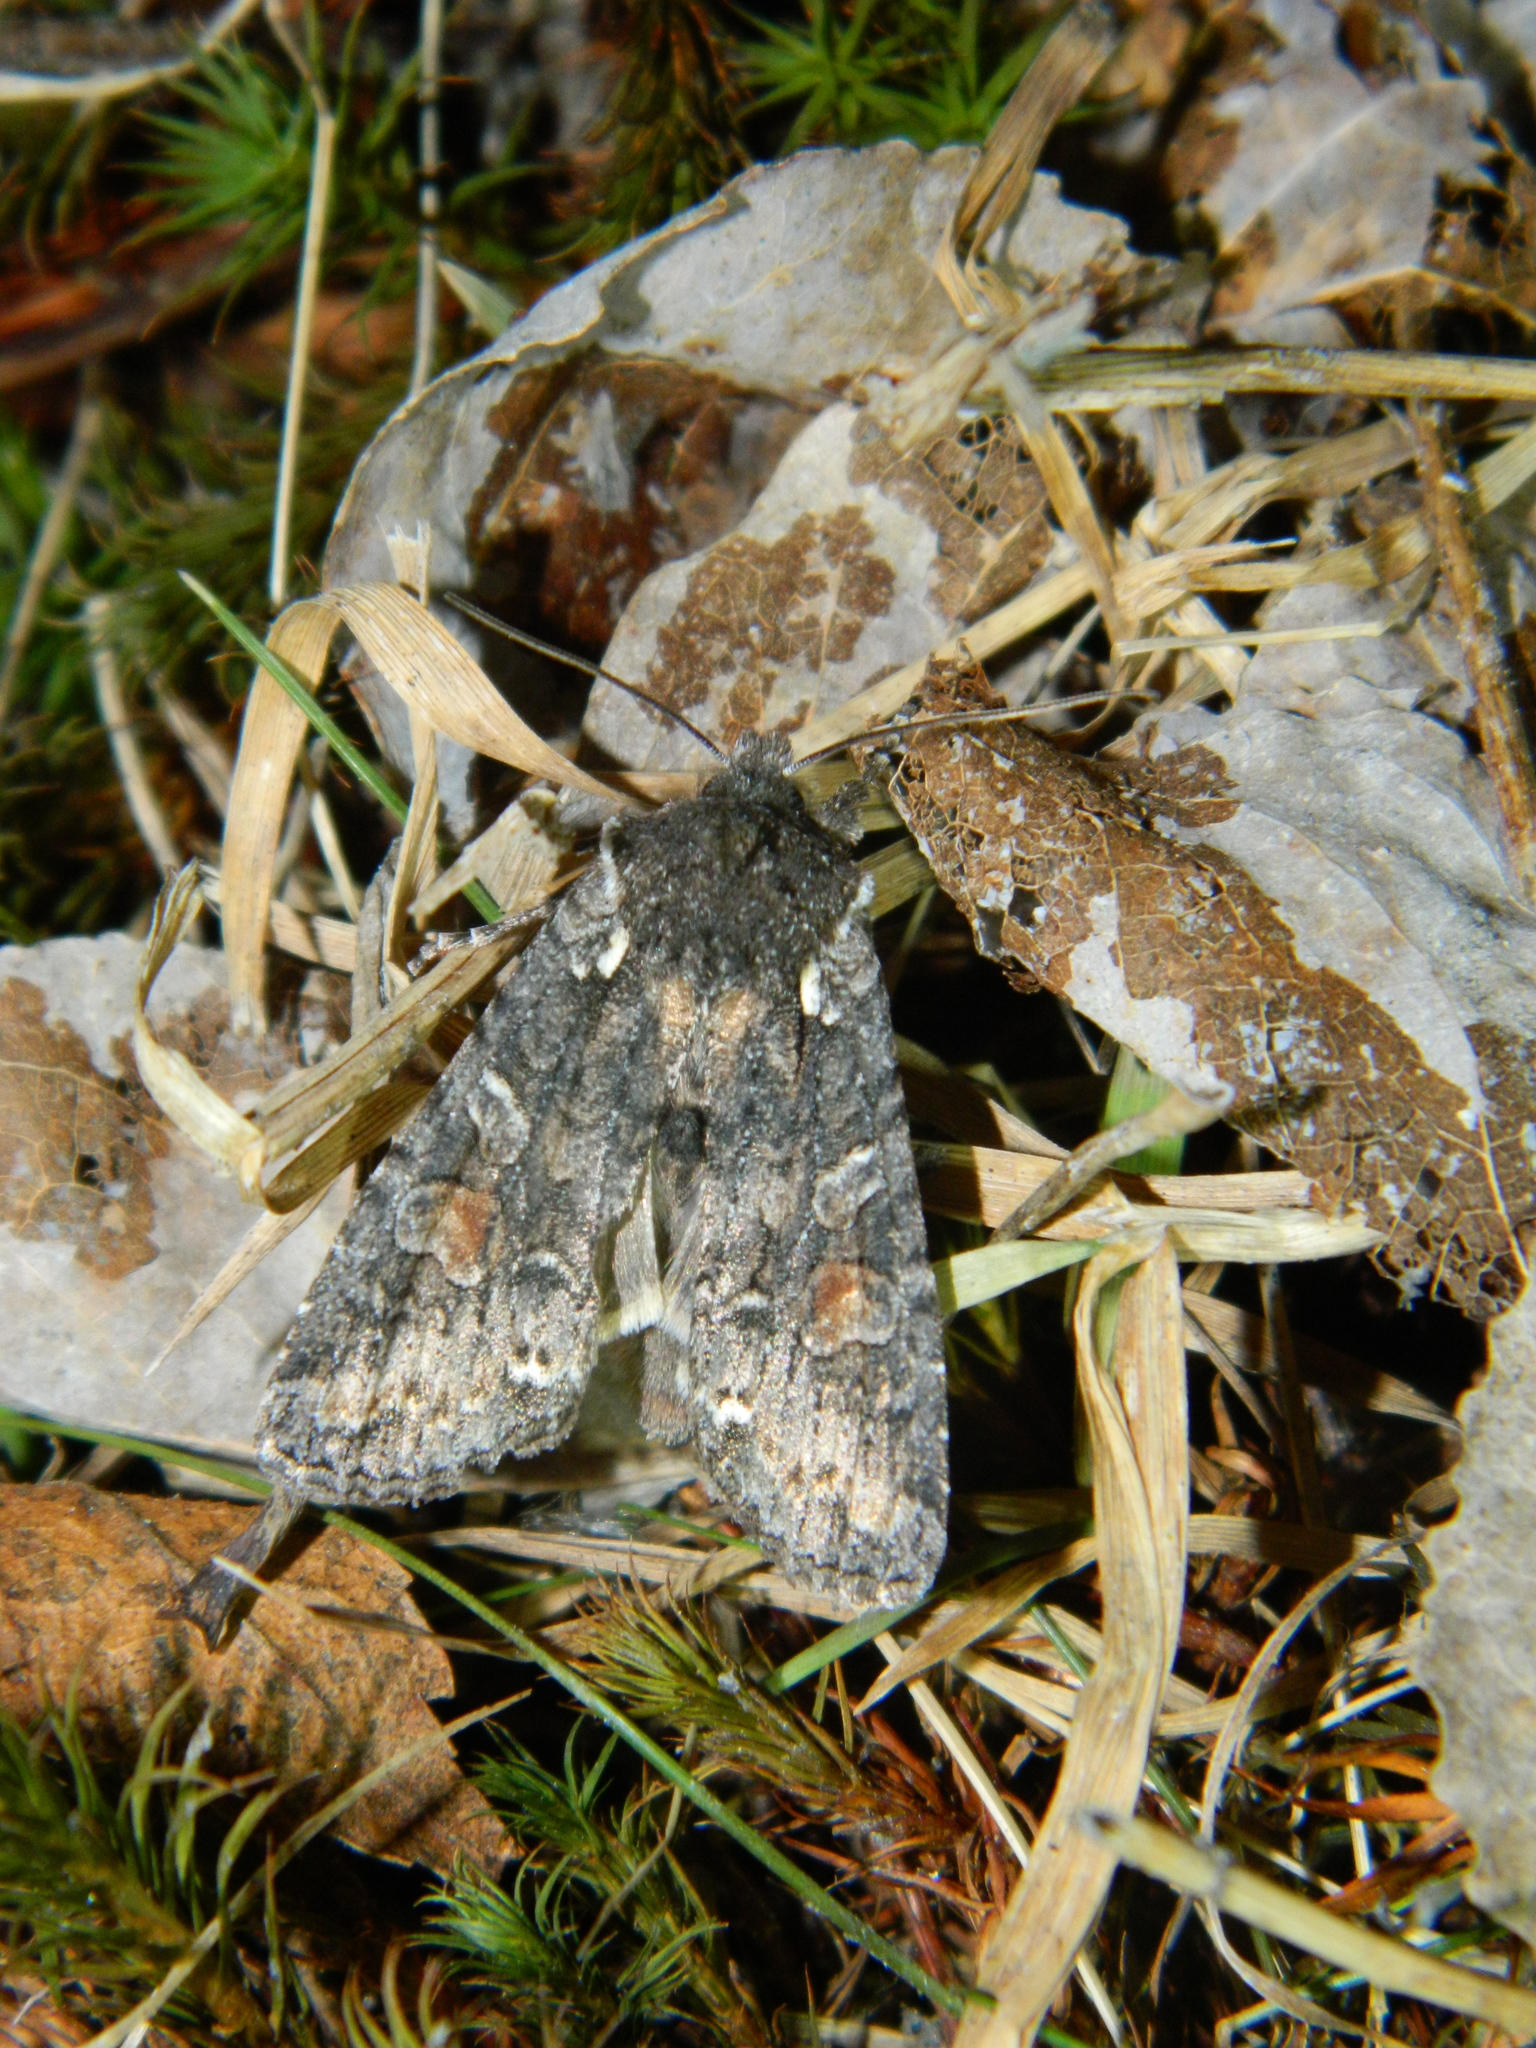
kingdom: Animalia
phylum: Arthropoda
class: Insecta
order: Lepidoptera
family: Noctuidae
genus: Lithophane
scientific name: Lithophane pexata
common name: Plush-naped pinion moth
